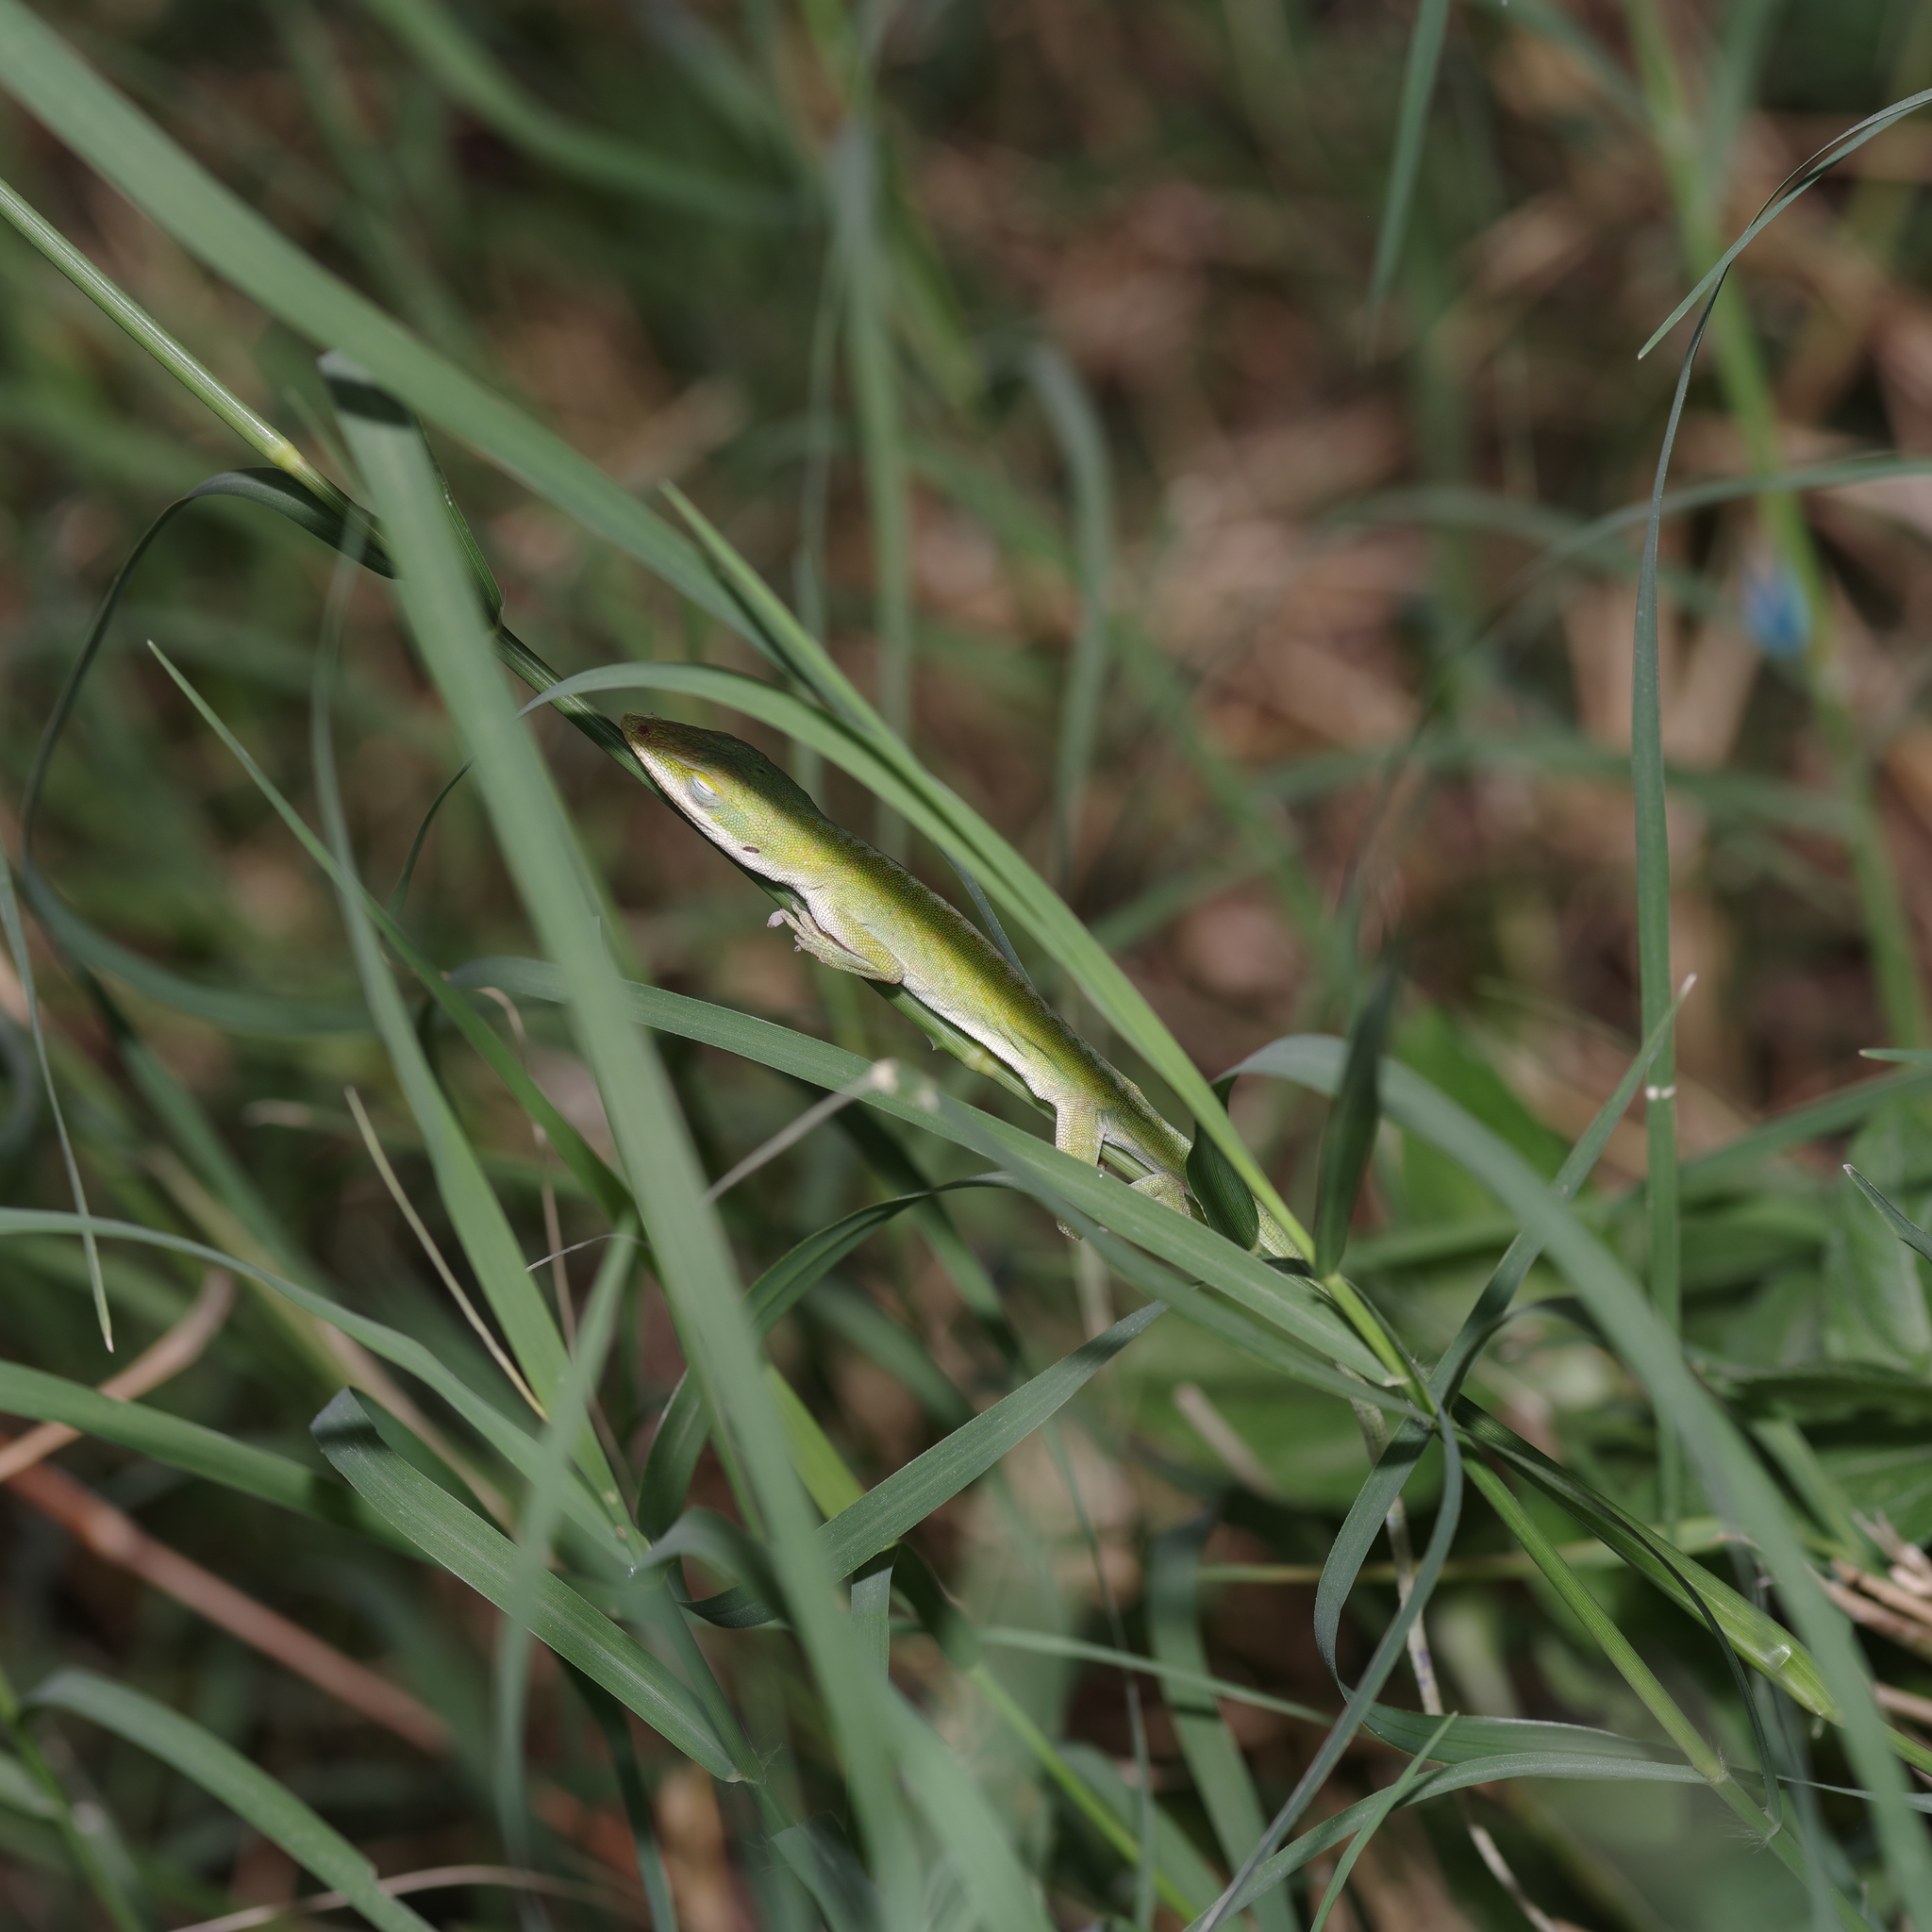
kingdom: Animalia
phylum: Chordata
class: Squamata
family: Dactyloidae
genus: Anolis
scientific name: Anolis carolinensis
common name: Green anole
